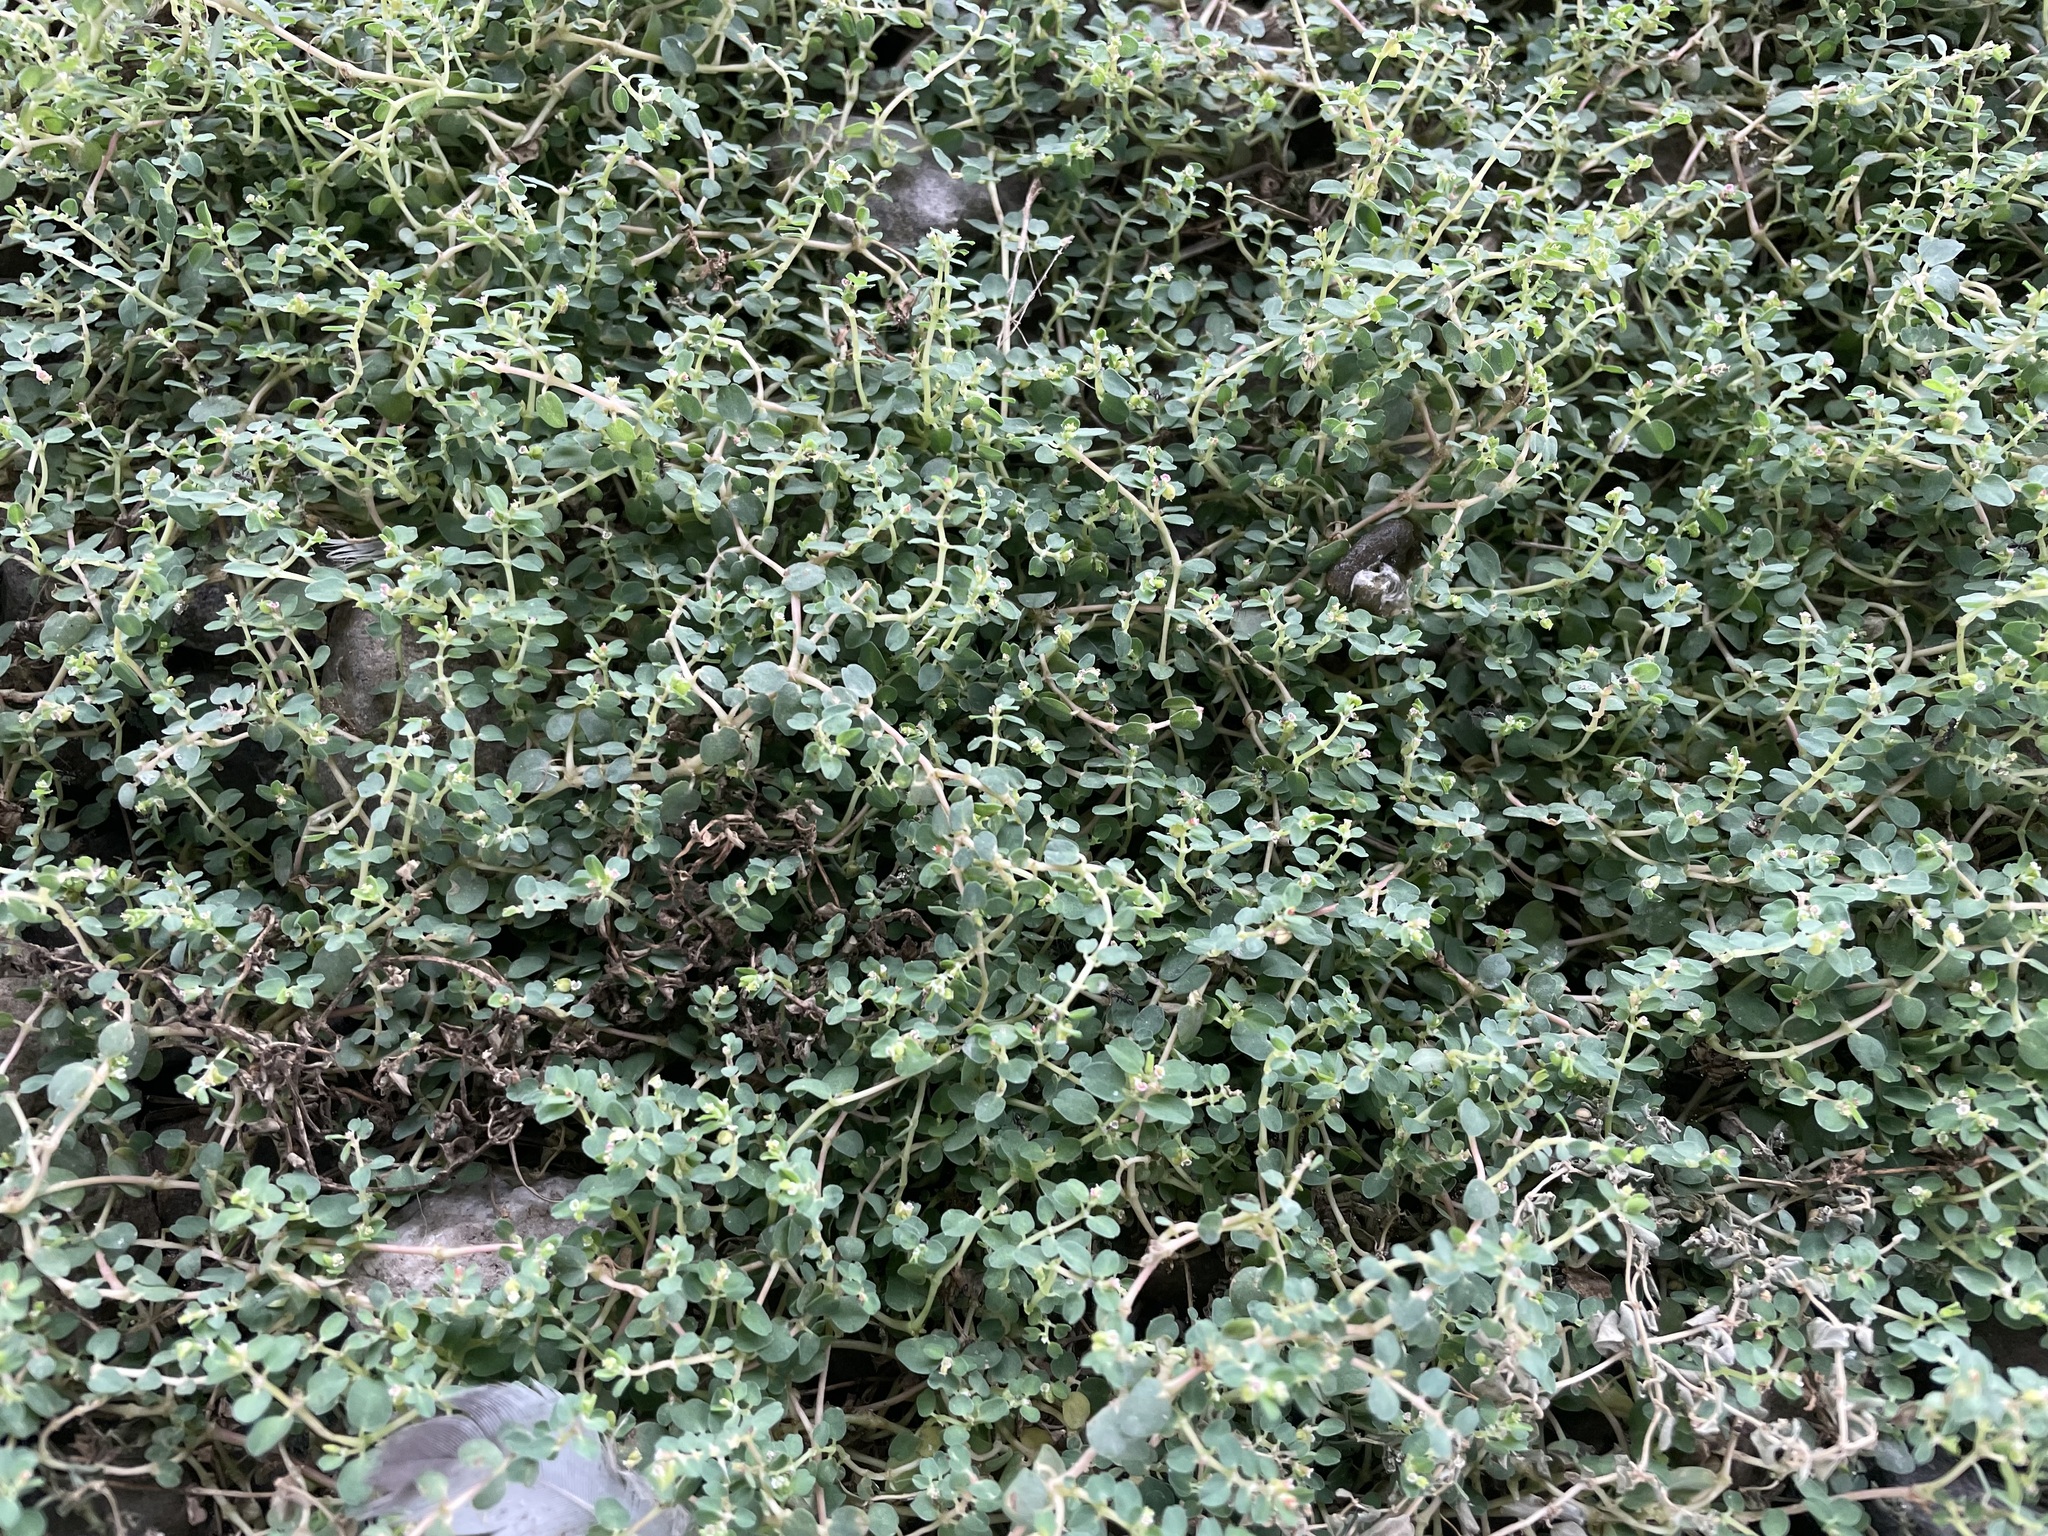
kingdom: Plantae
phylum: Tracheophyta
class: Magnoliopsida
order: Malpighiales
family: Euphorbiaceae
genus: Euphorbia
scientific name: Euphorbia serpens
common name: Matted sandmat
